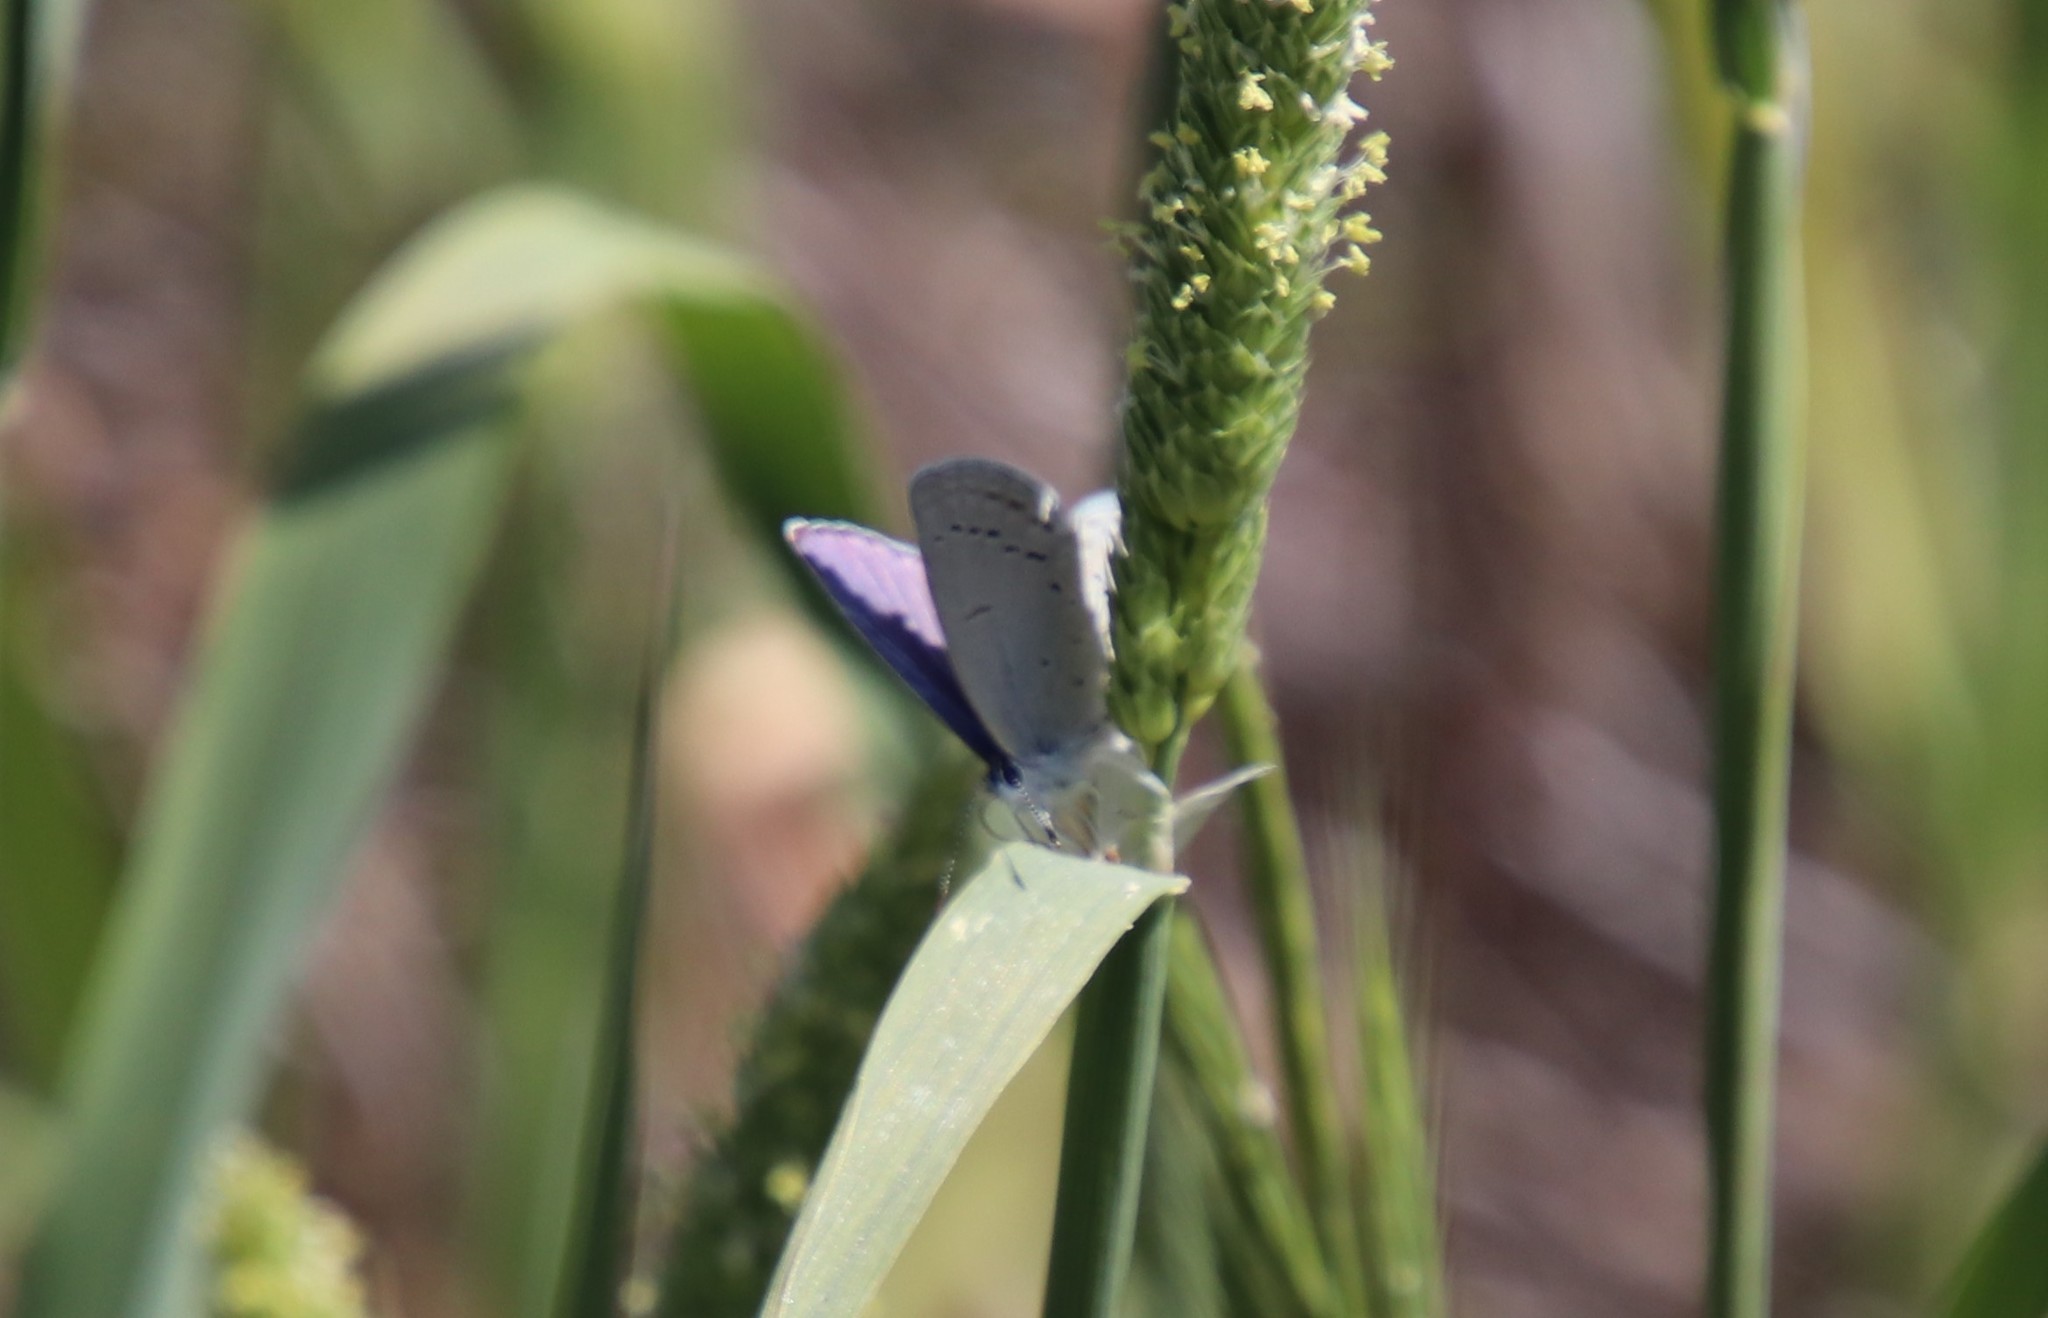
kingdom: Animalia
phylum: Arthropoda
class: Insecta
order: Lepidoptera
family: Lycaenidae
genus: Celastrina
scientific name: Celastrina ladon
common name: Spring azure
